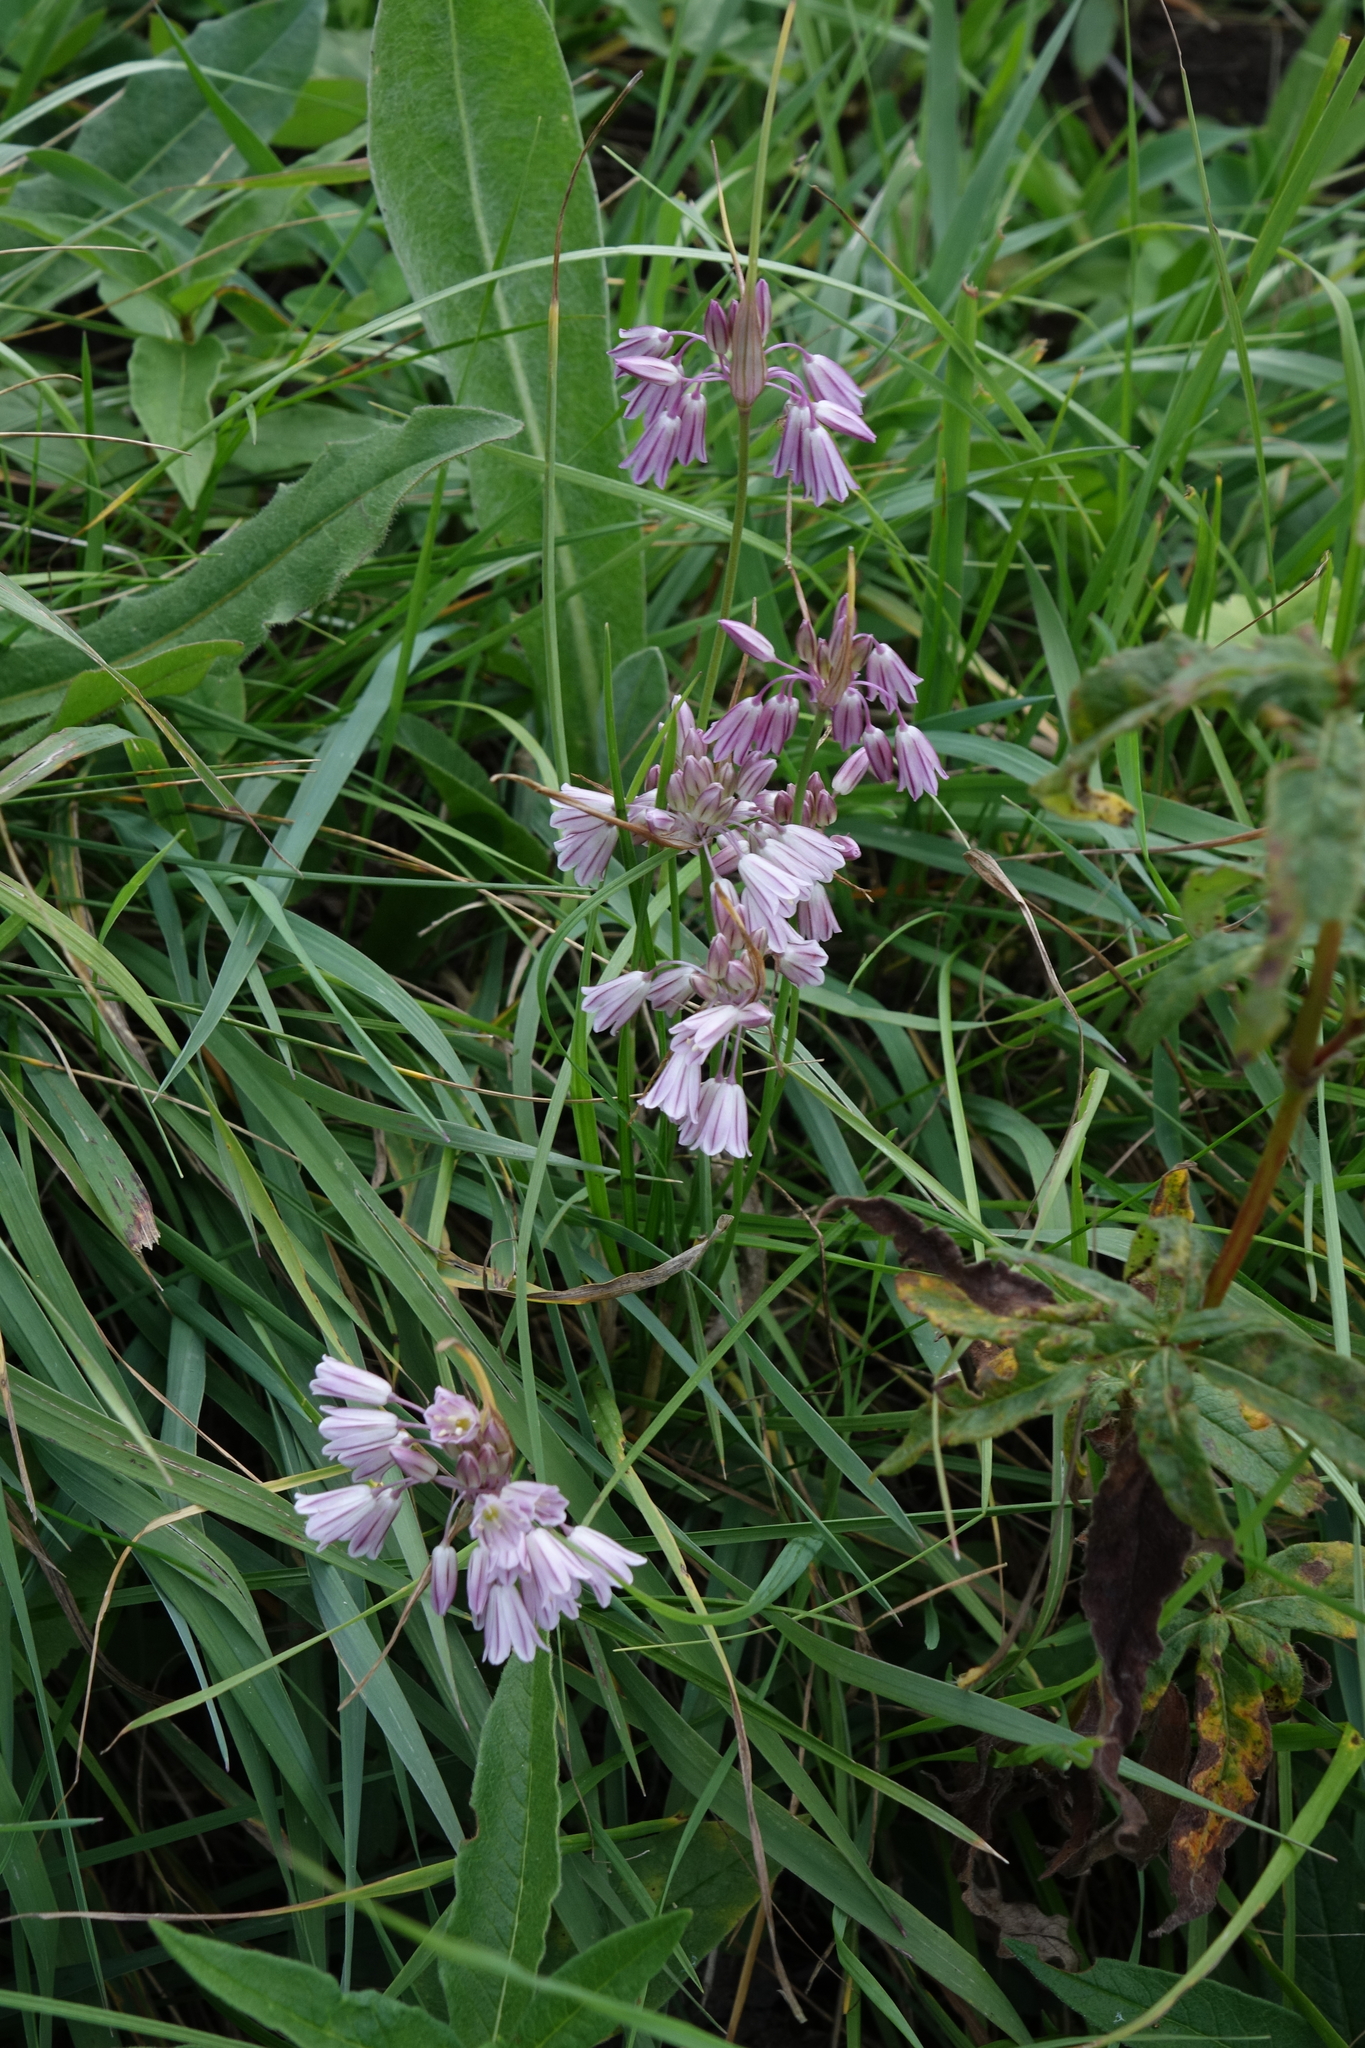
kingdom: Plantae
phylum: Tracheophyta
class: Liliopsida
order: Asparagales
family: Amaryllidaceae
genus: Allium
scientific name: Allium kunthianum
